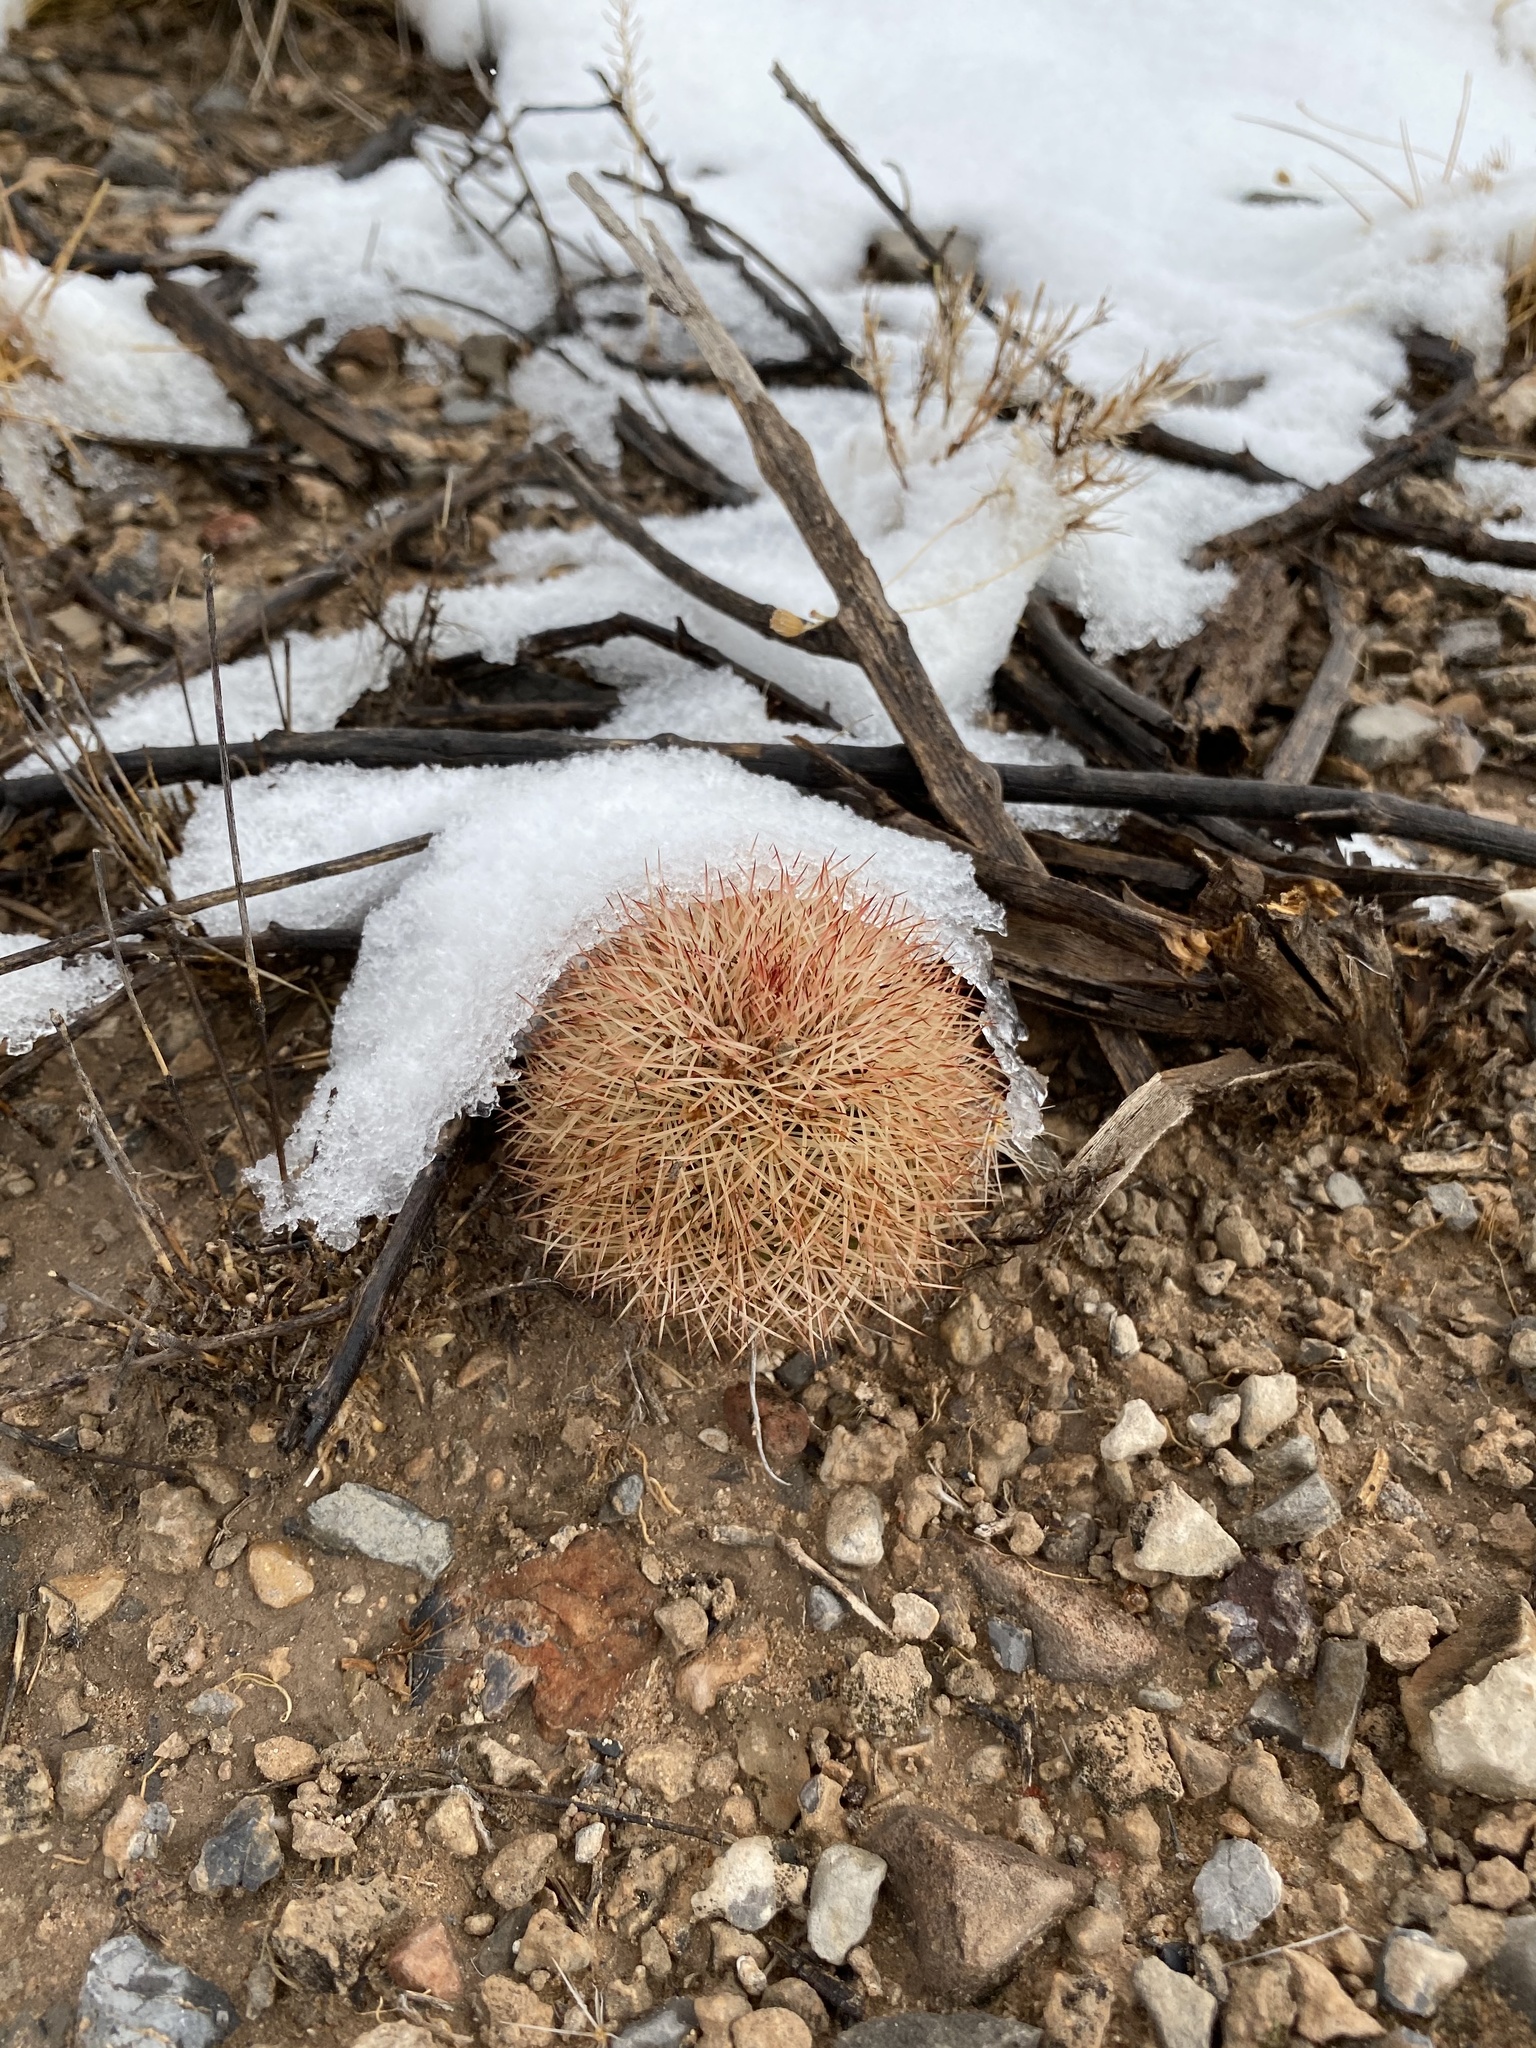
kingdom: Plantae
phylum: Tracheophyta
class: Magnoliopsida
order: Caryophyllales
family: Cactaceae
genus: Echinocereus
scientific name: Echinocereus dasyacanthus
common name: Spiny hedgehog cactus
